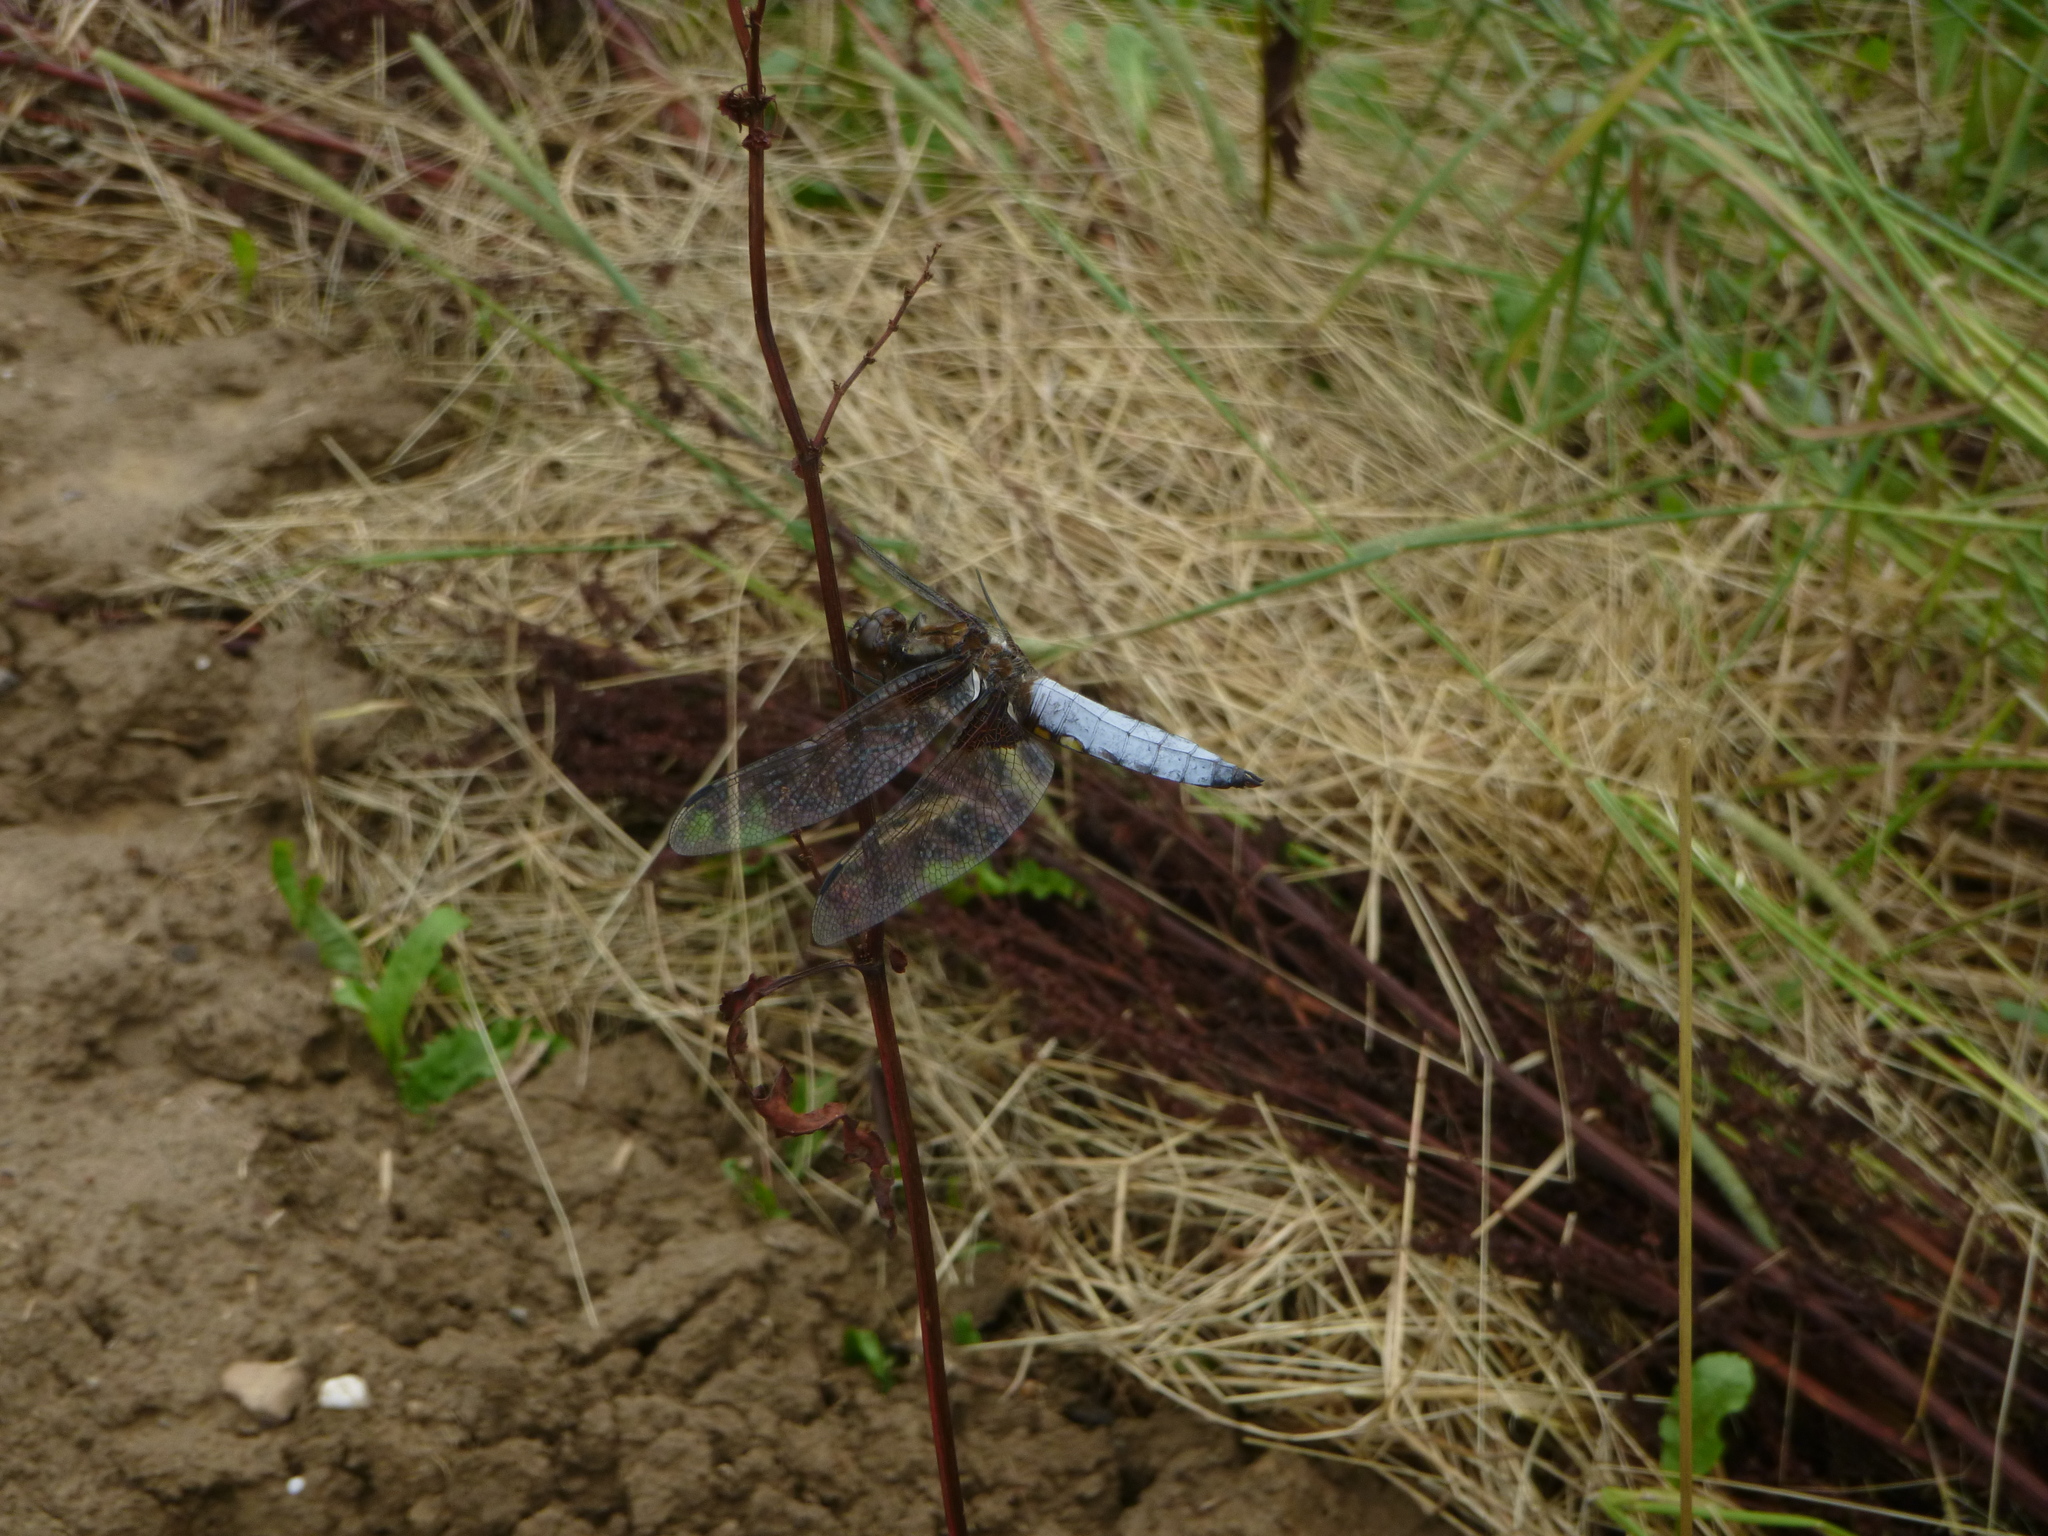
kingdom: Animalia
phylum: Arthropoda
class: Insecta
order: Odonata
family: Libellulidae
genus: Libellula
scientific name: Libellula depressa
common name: Broad-bodied chaser
